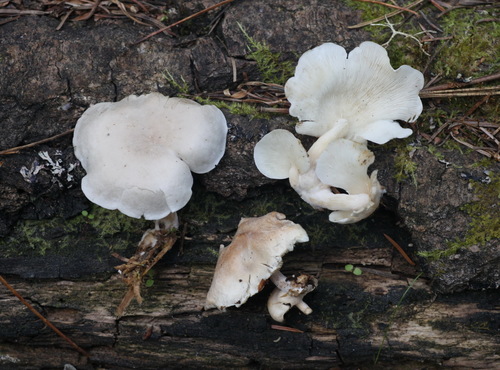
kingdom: Fungi
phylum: Basidiomycota
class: Agaricomycetes
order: Agaricales
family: Lyophyllaceae
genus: Ossicaulis
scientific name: Ossicaulis lignatilis
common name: Mealy oyster
